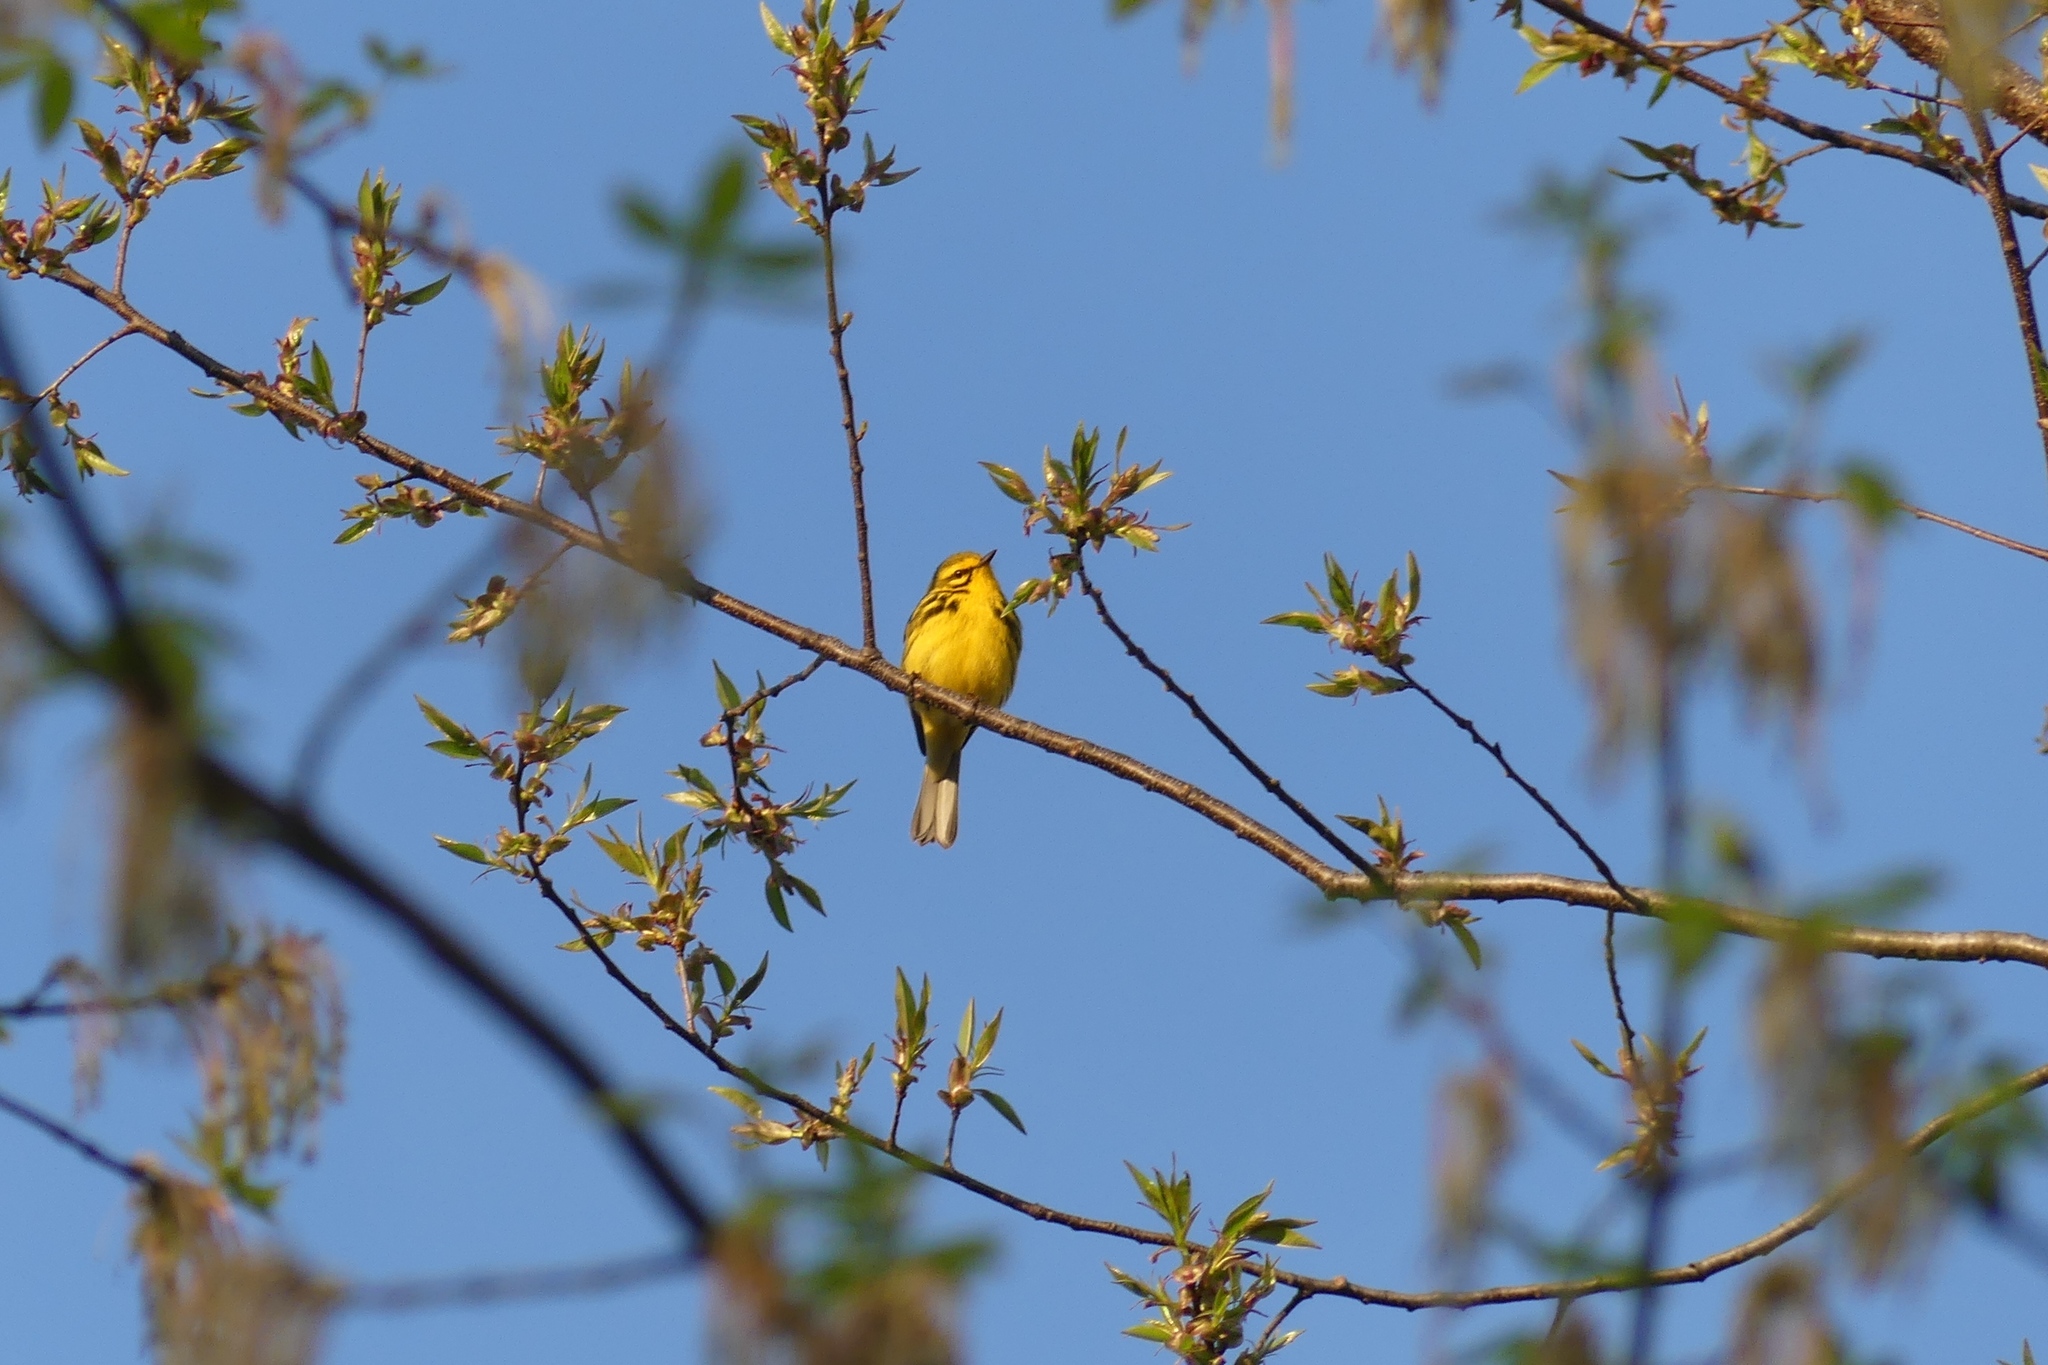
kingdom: Animalia
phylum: Chordata
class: Aves
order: Passeriformes
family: Parulidae
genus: Setophaga
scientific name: Setophaga discolor
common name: Prairie warbler
